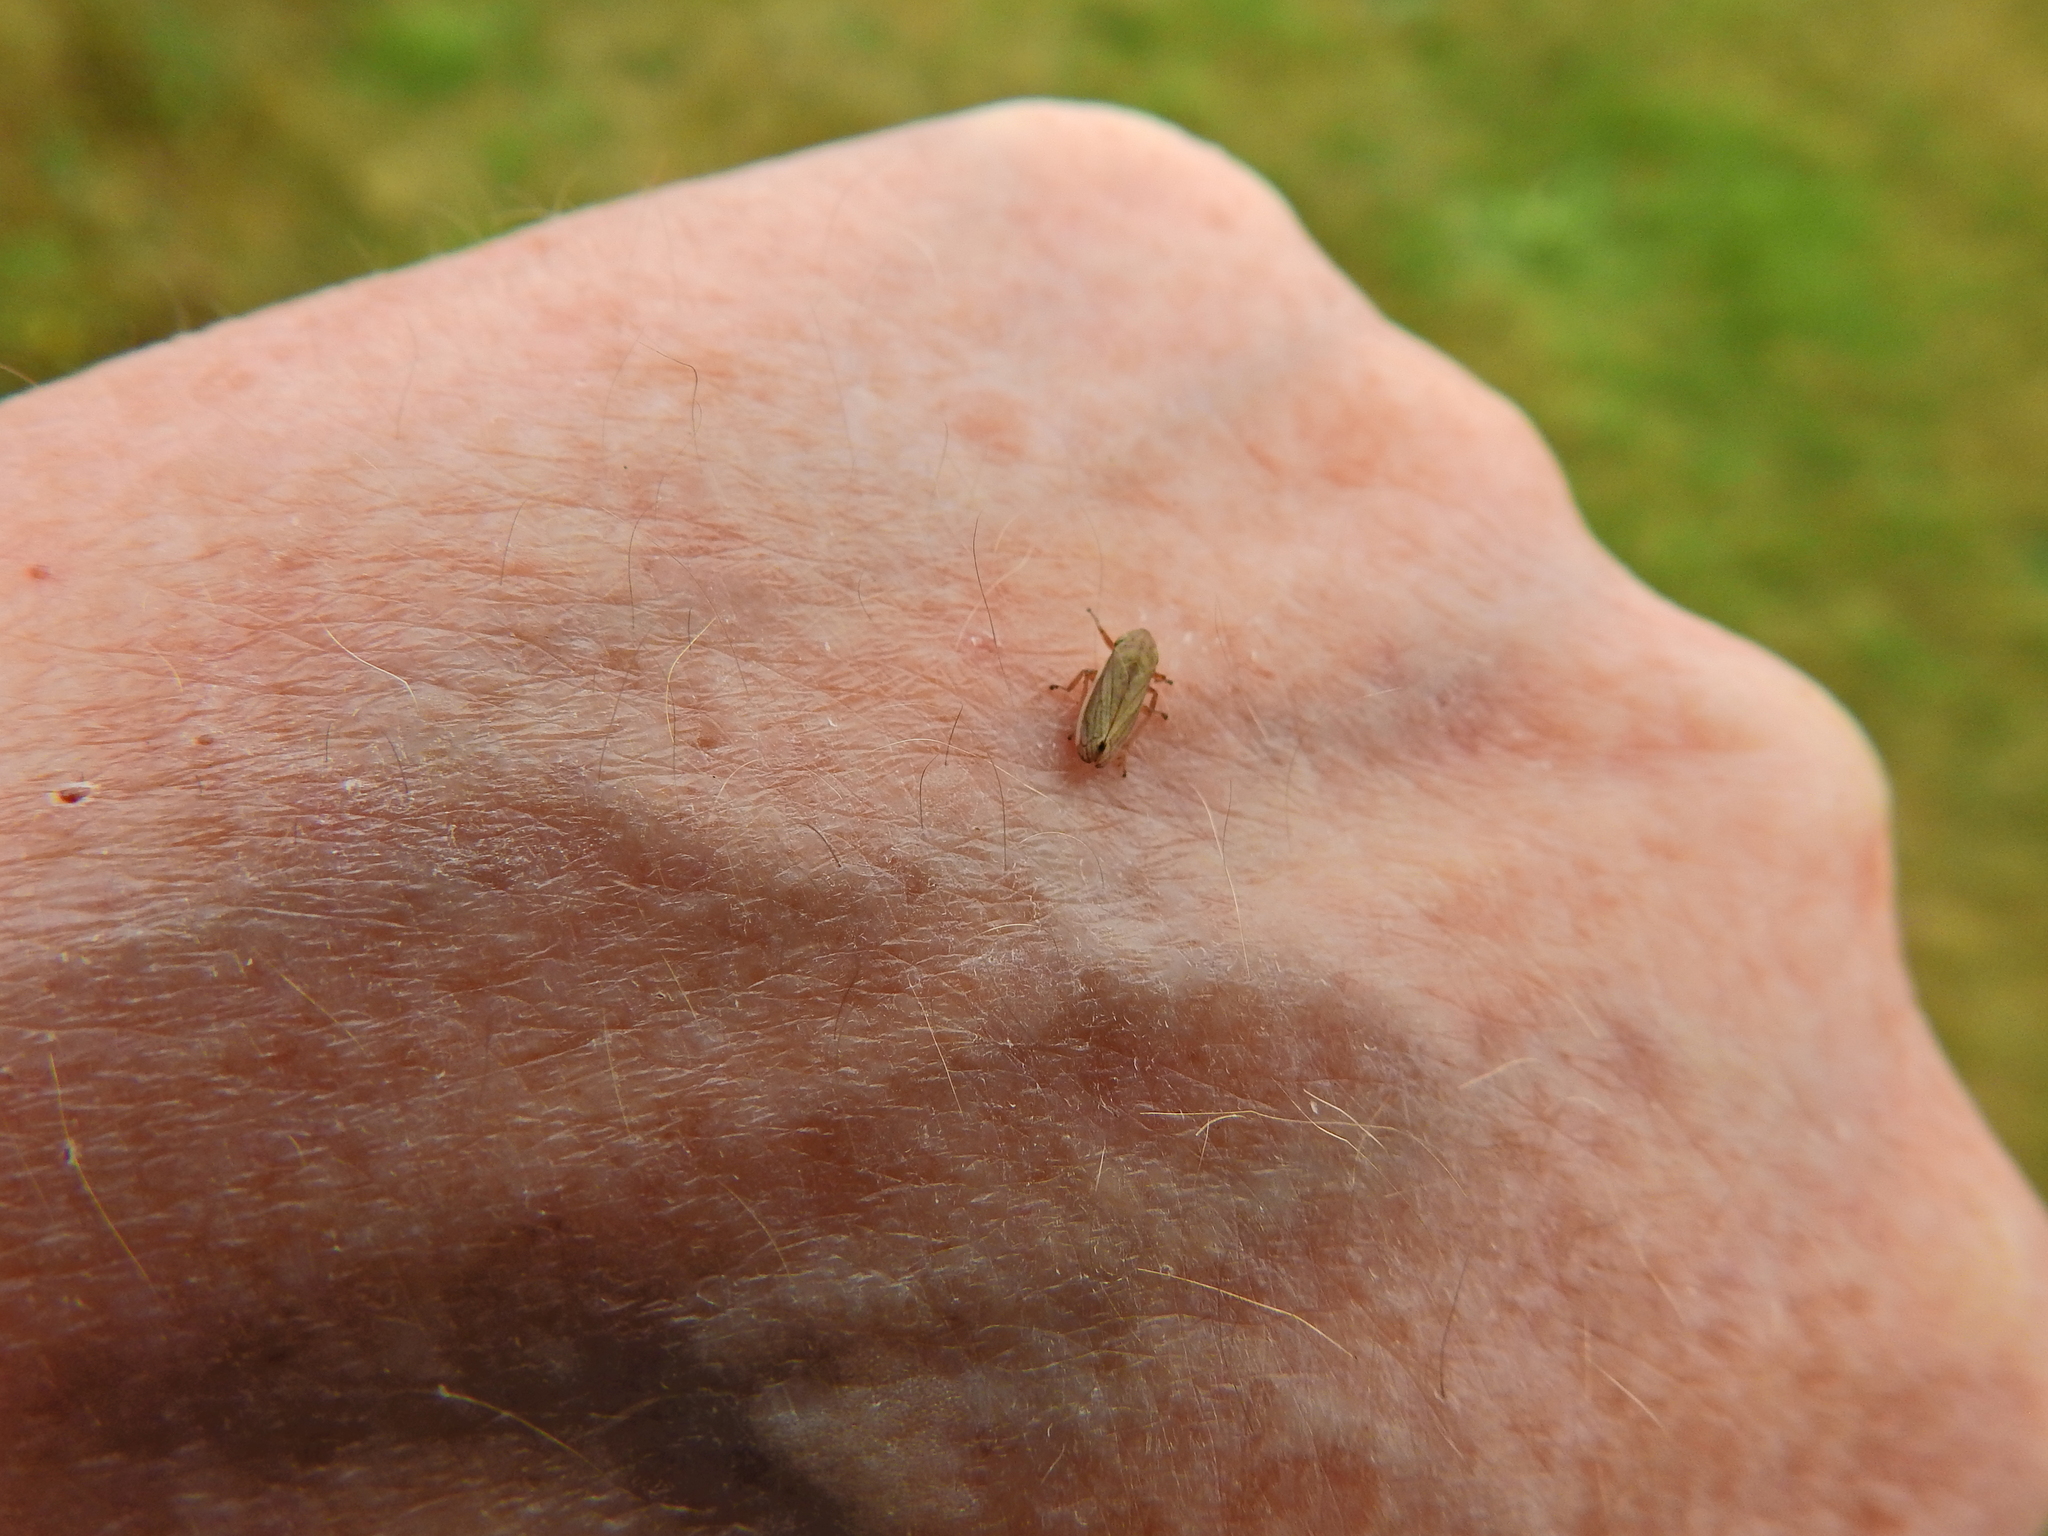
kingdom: Animalia
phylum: Arthropoda
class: Insecta
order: Hemiptera
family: Aphrophoridae
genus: Neophilaenus
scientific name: Neophilaenus lineatus
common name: Spittlebug
